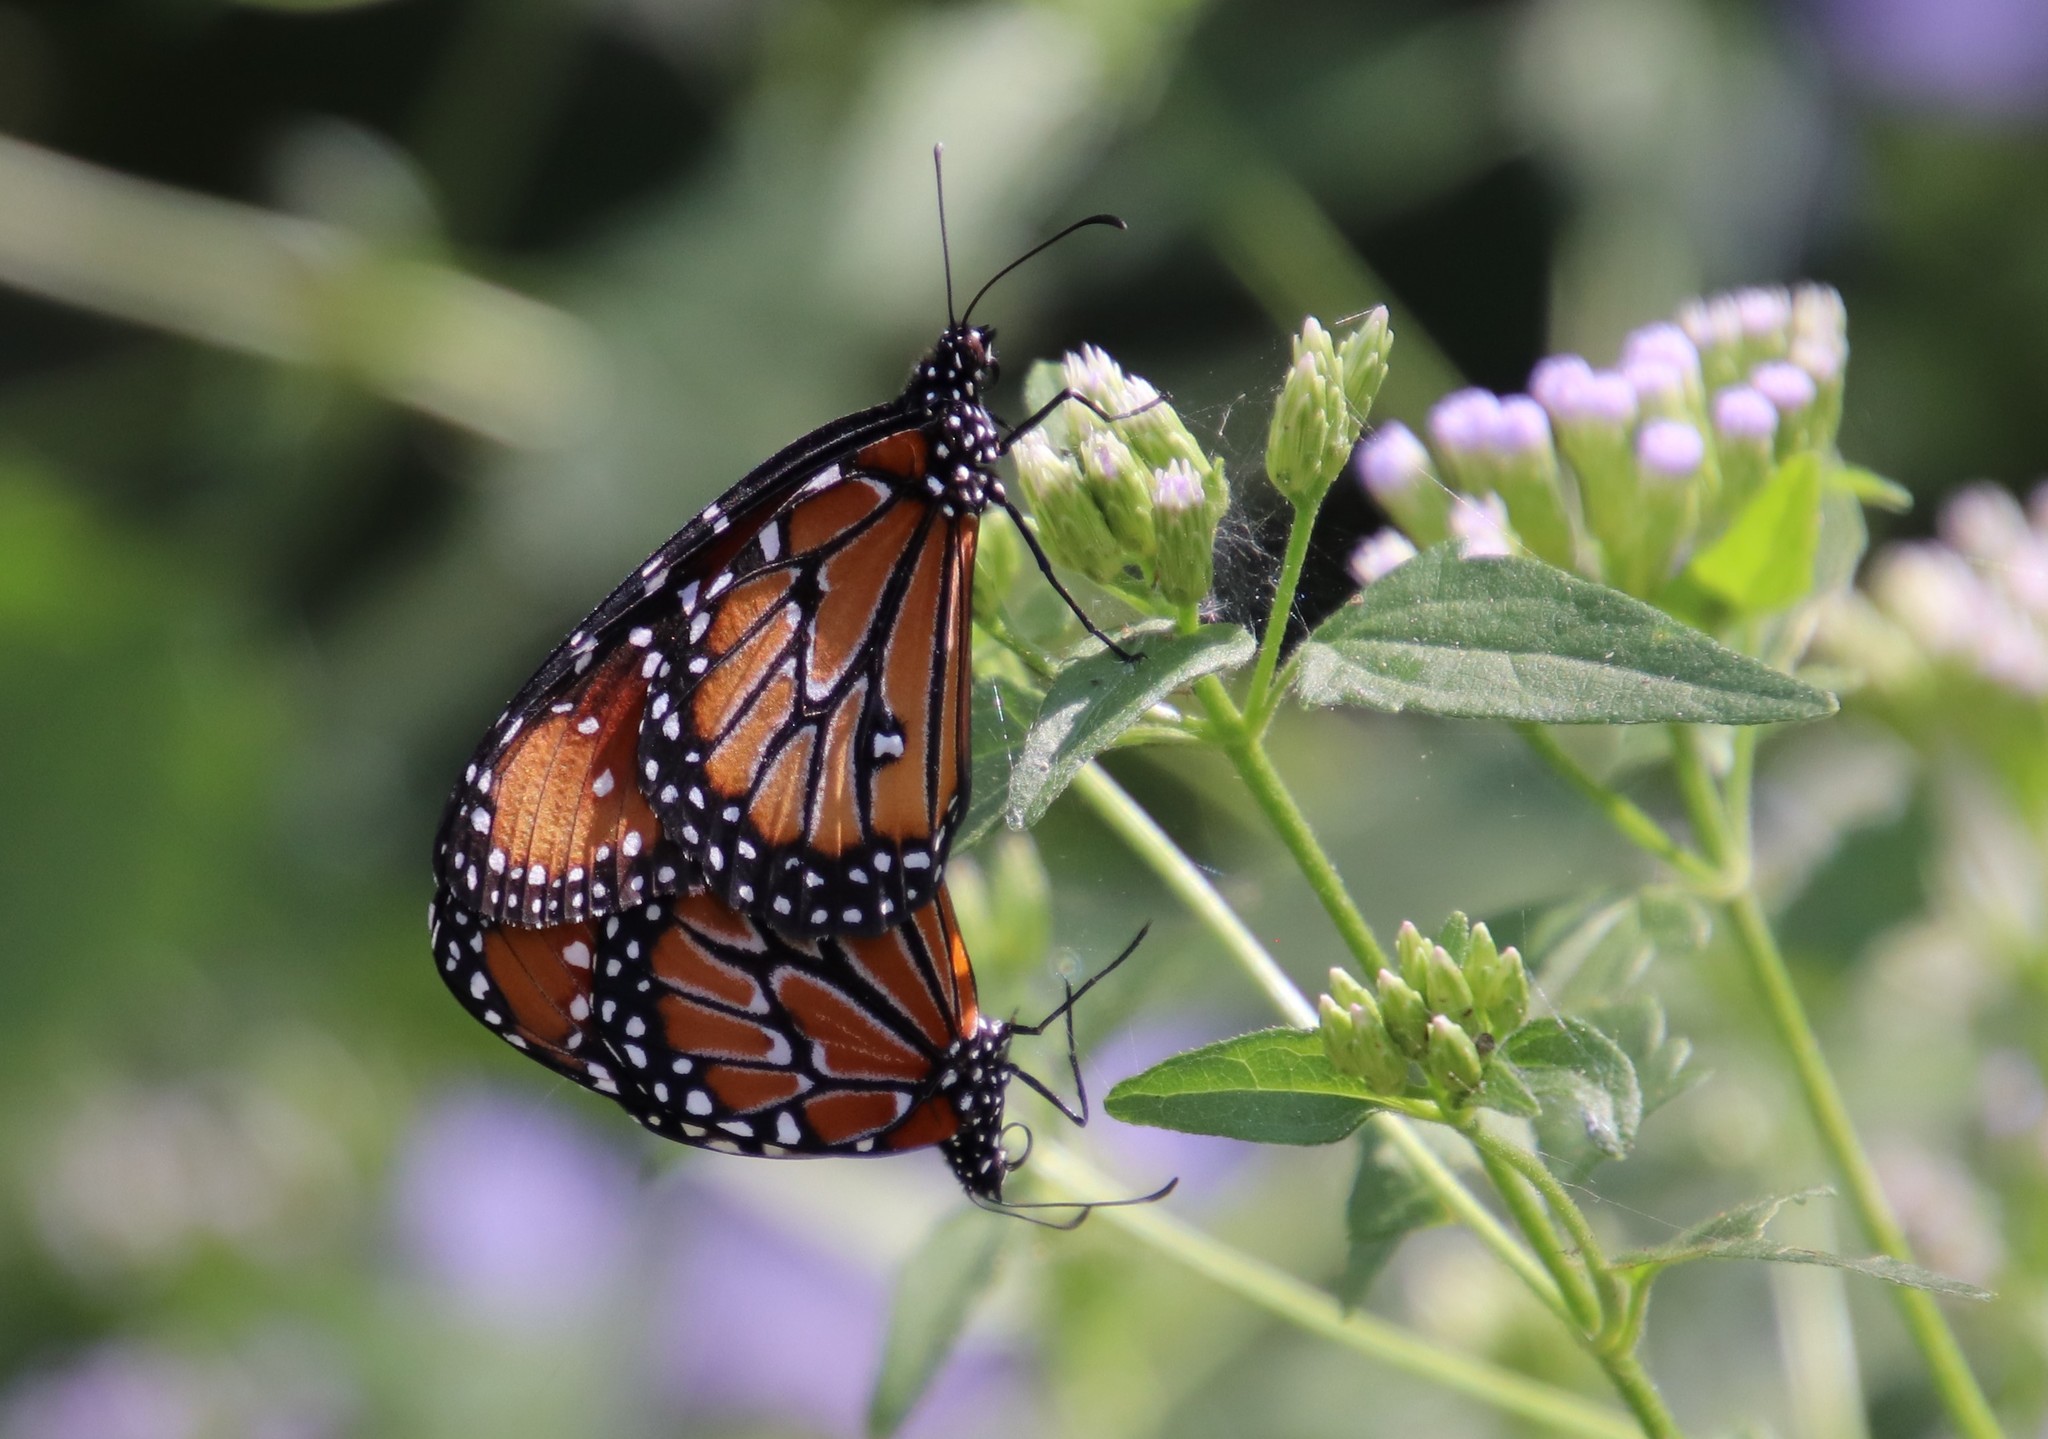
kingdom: Animalia
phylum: Arthropoda
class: Insecta
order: Lepidoptera
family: Nymphalidae
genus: Danaus
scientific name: Danaus gilippus
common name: Queen
